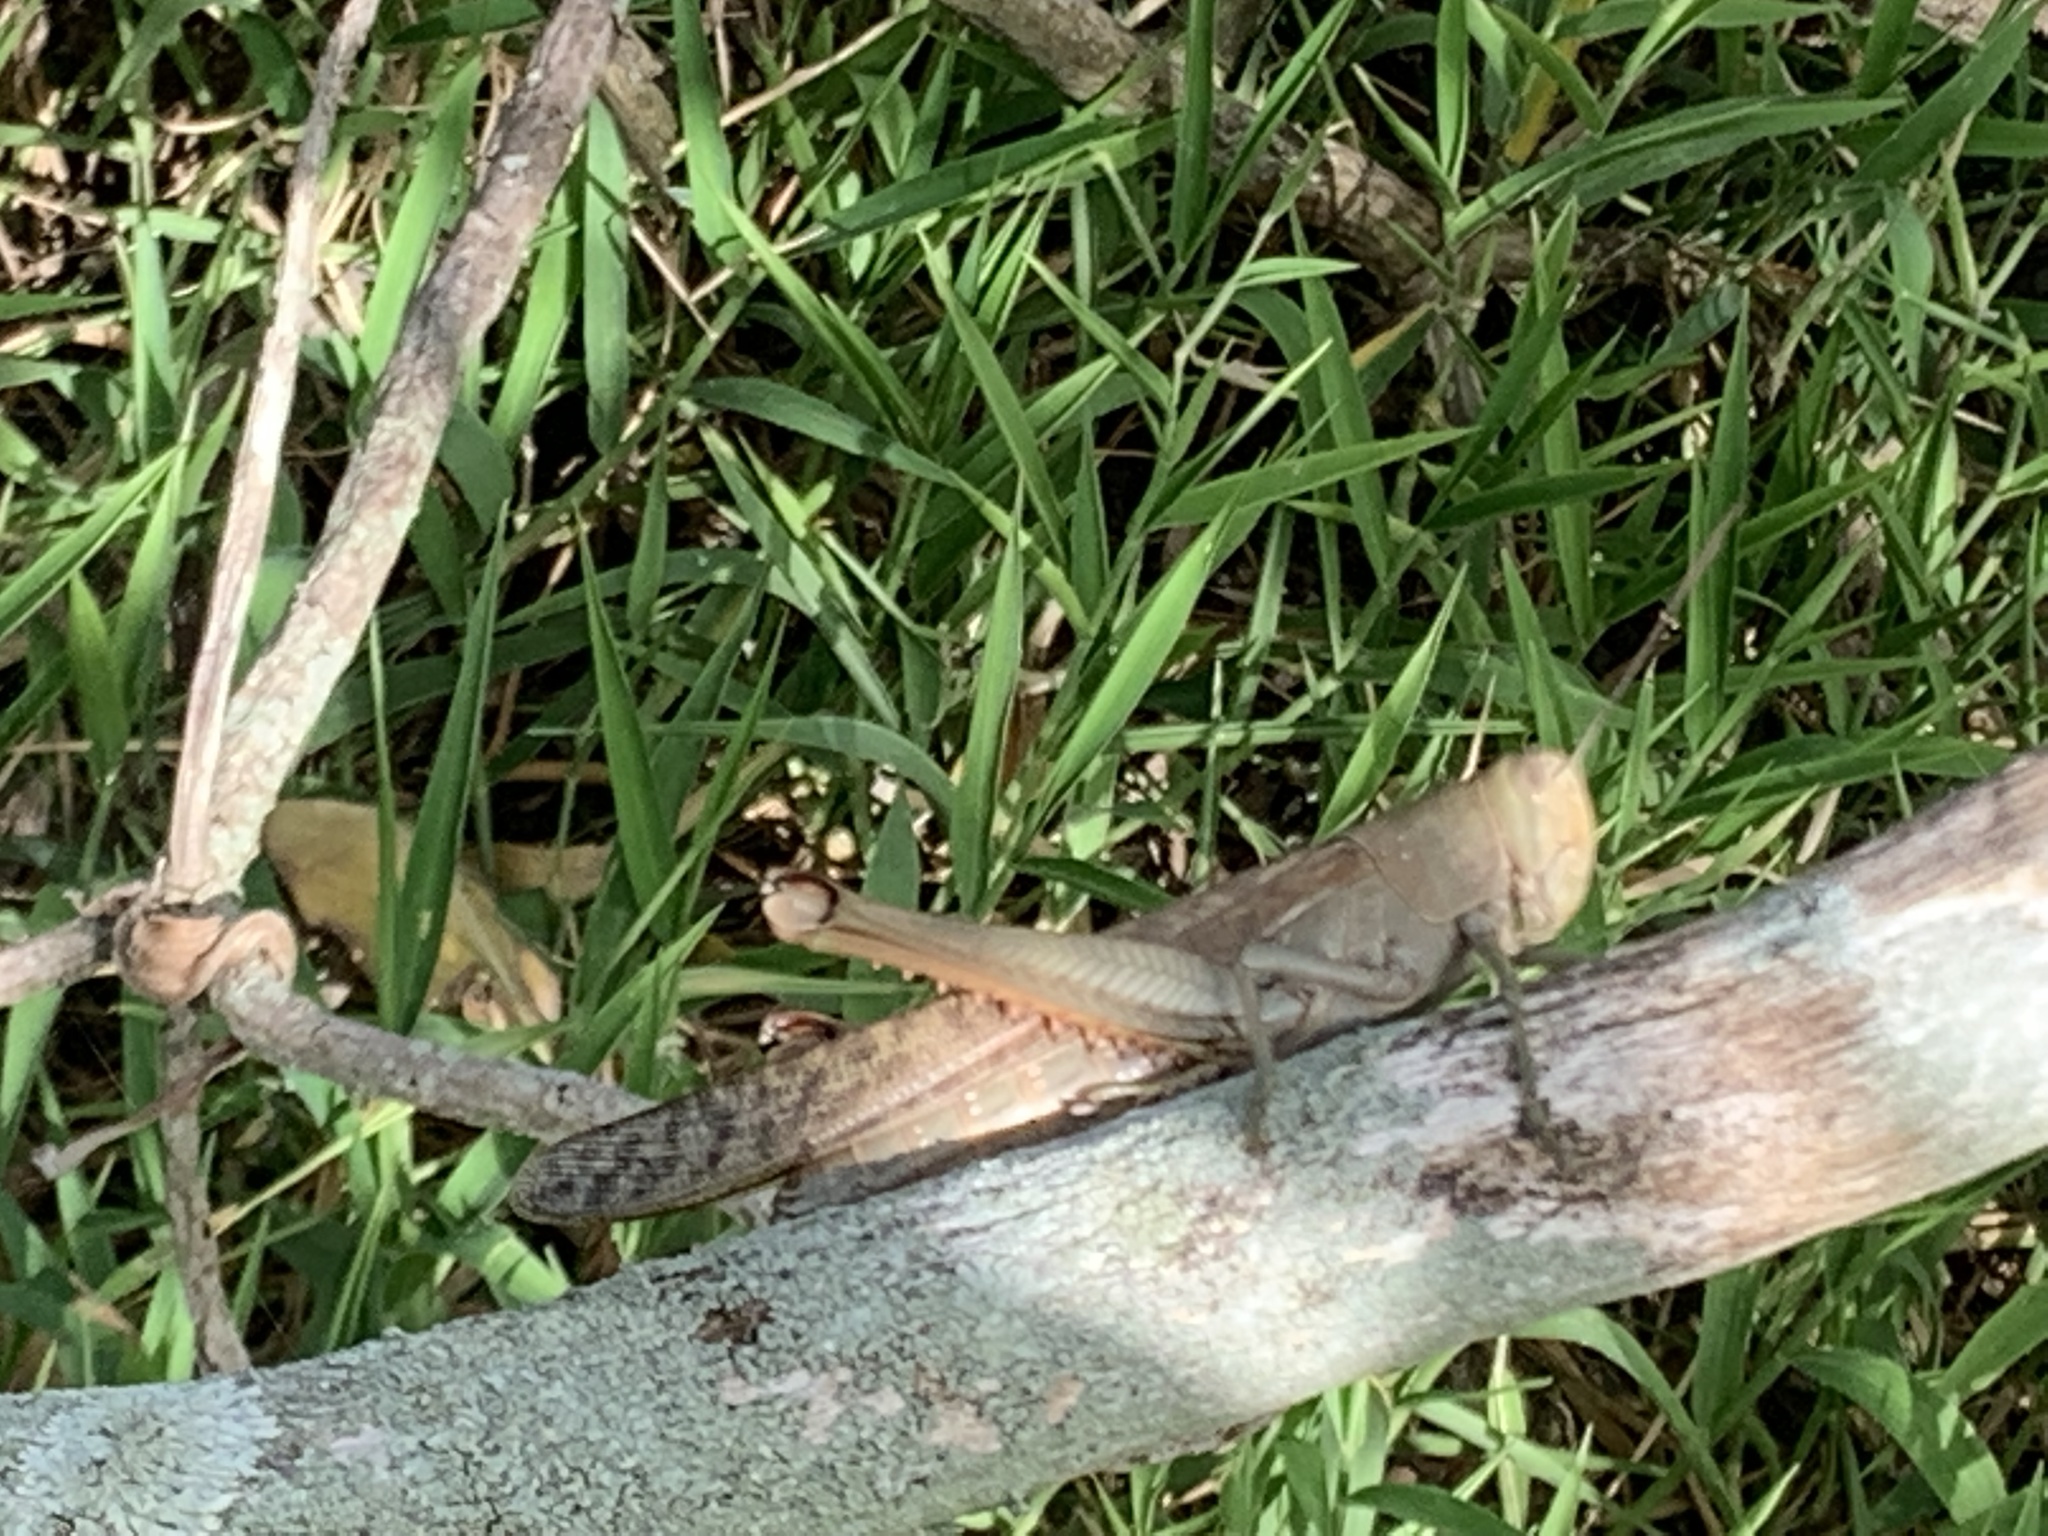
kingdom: Animalia
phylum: Arthropoda
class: Insecta
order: Orthoptera
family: Acrididae
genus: Valanga
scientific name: Valanga irregularis
